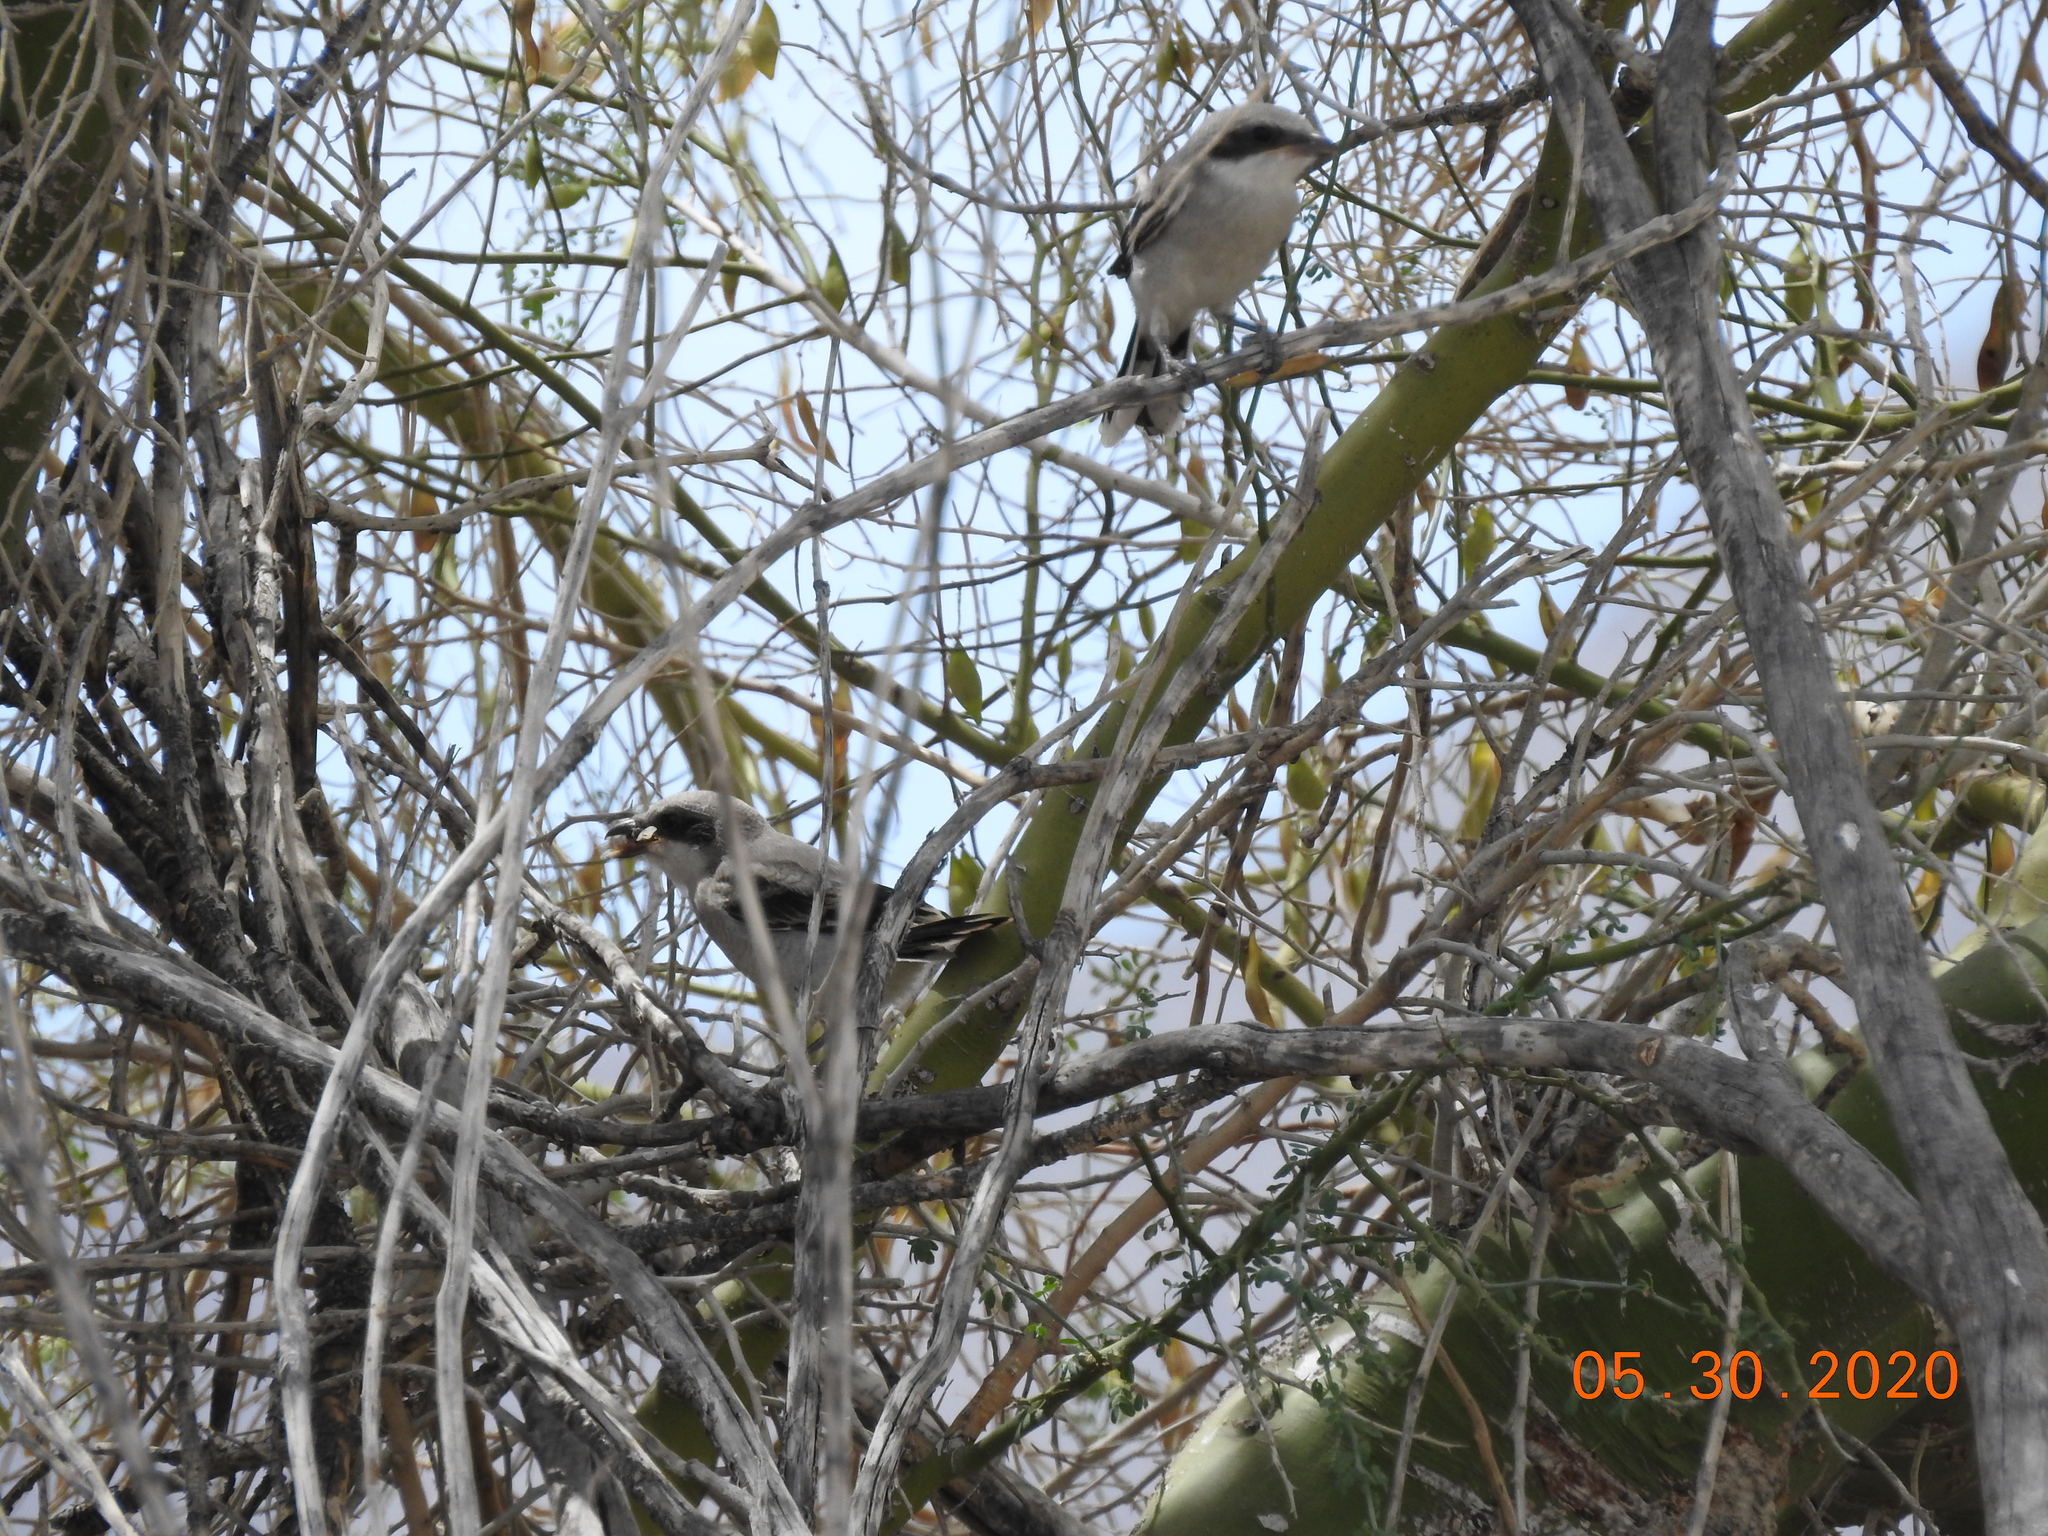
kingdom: Animalia
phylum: Chordata
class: Aves
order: Passeriformes
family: Laniidae
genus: Lanius
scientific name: Lanius ludovicianus
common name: Loggerhead shrike
